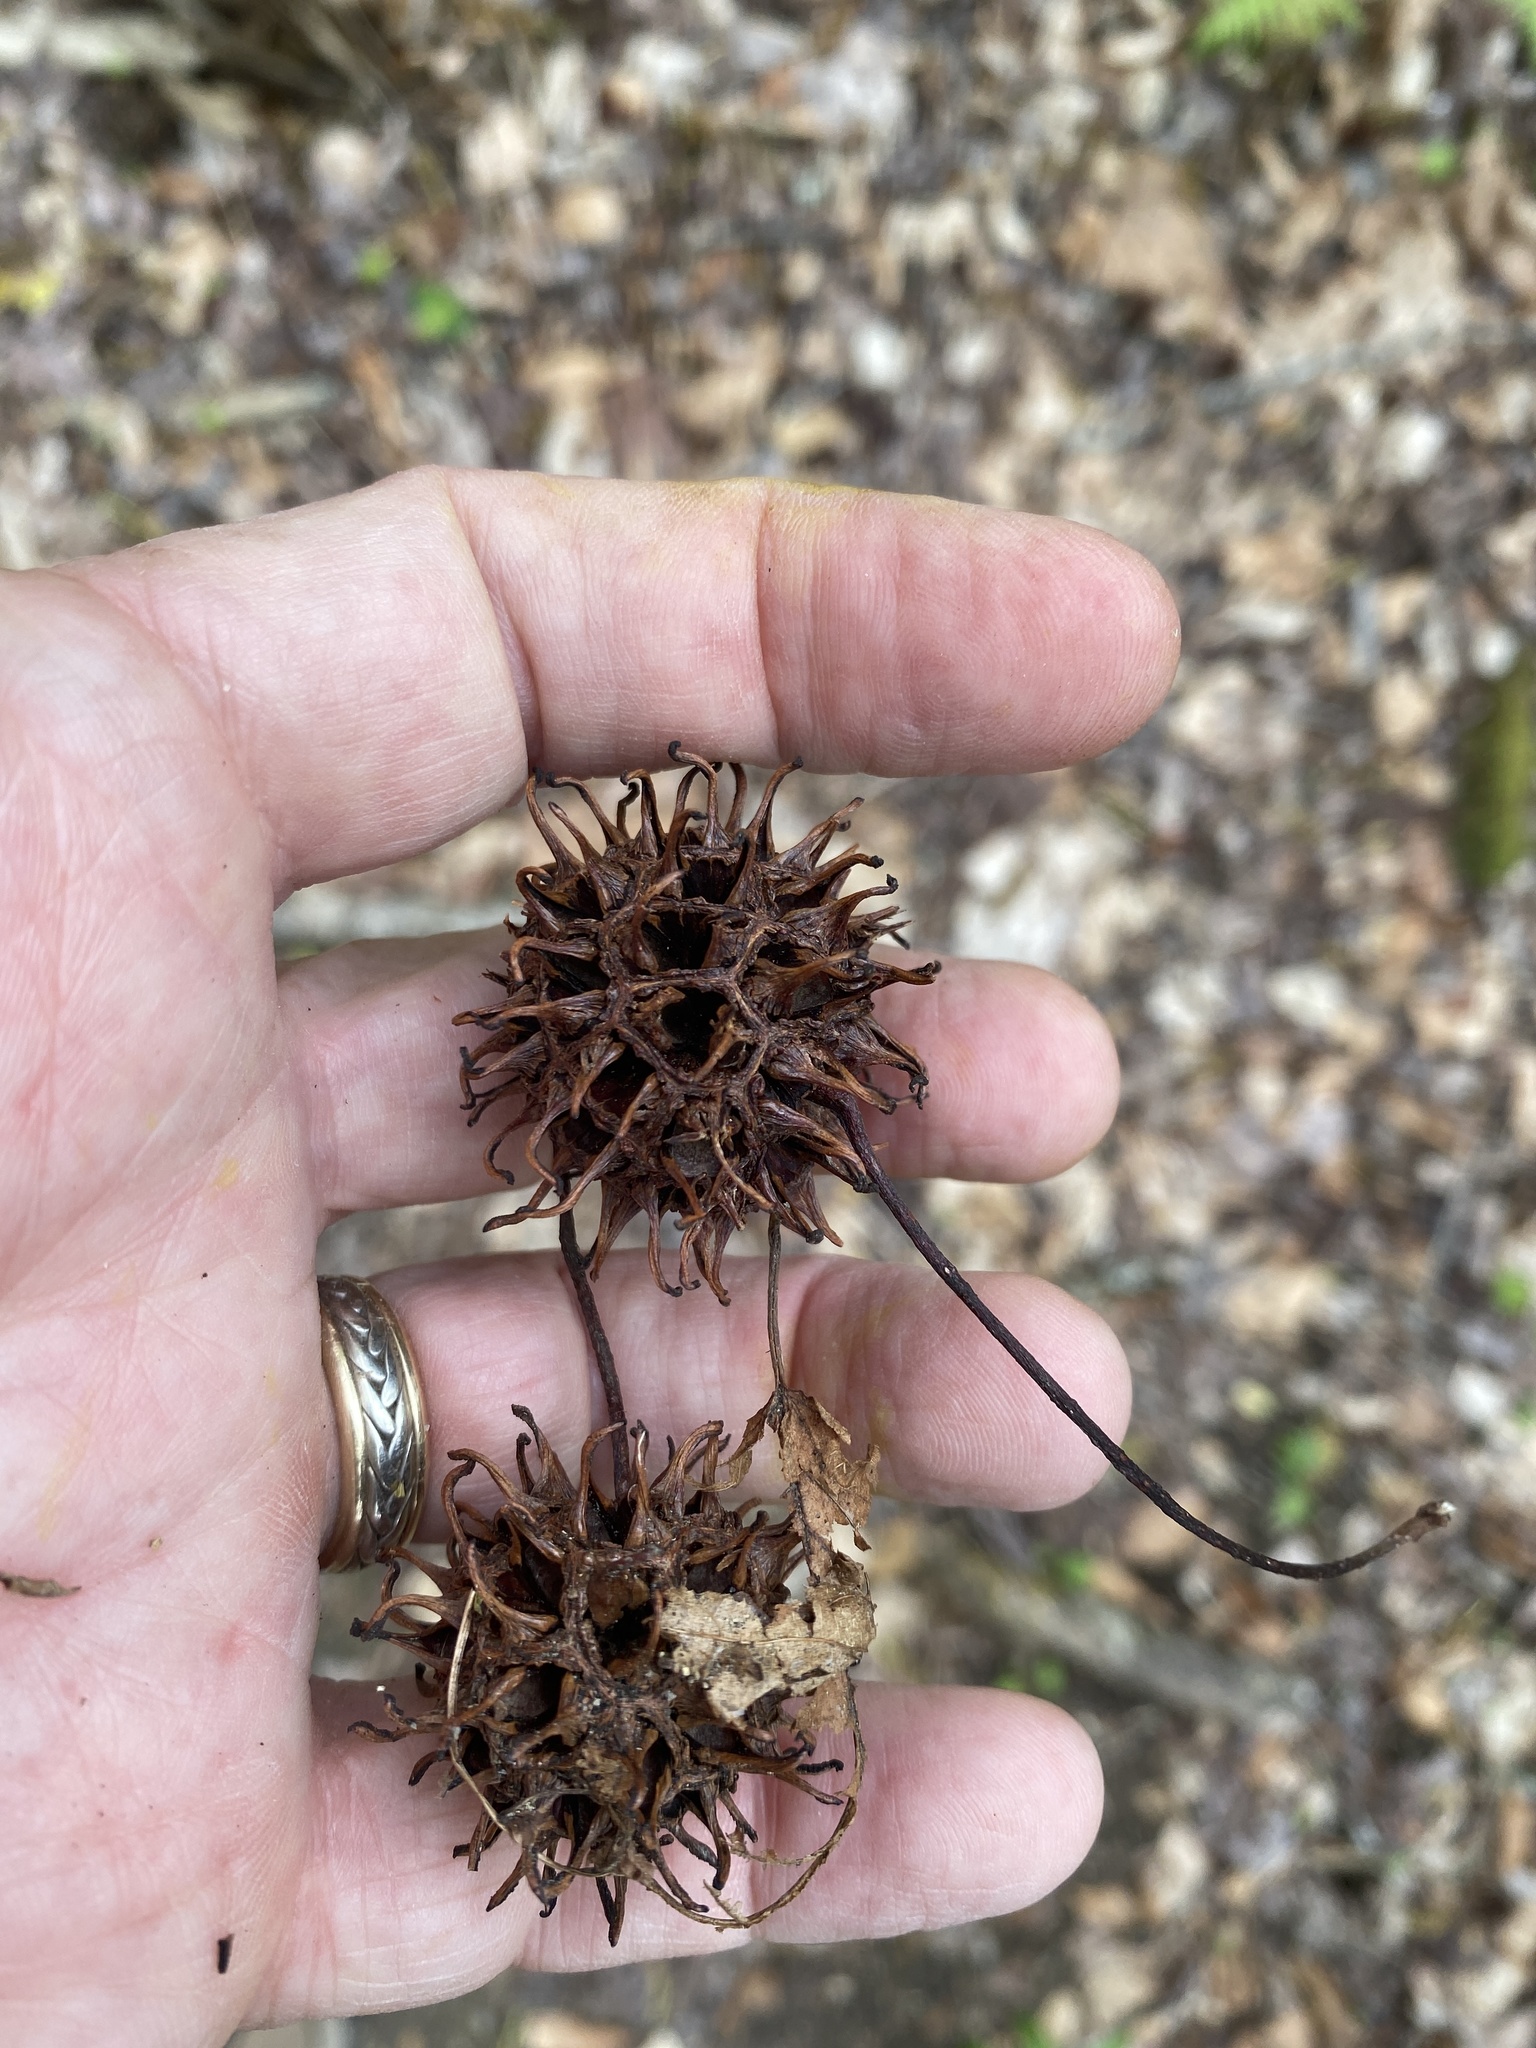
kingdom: Plantae
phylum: Tracheophyta
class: Magnoliopsida
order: Saxifragales
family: Altingiaceae
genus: Liquidambar
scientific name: Liquidambar styraciflua
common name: Sweet gum
